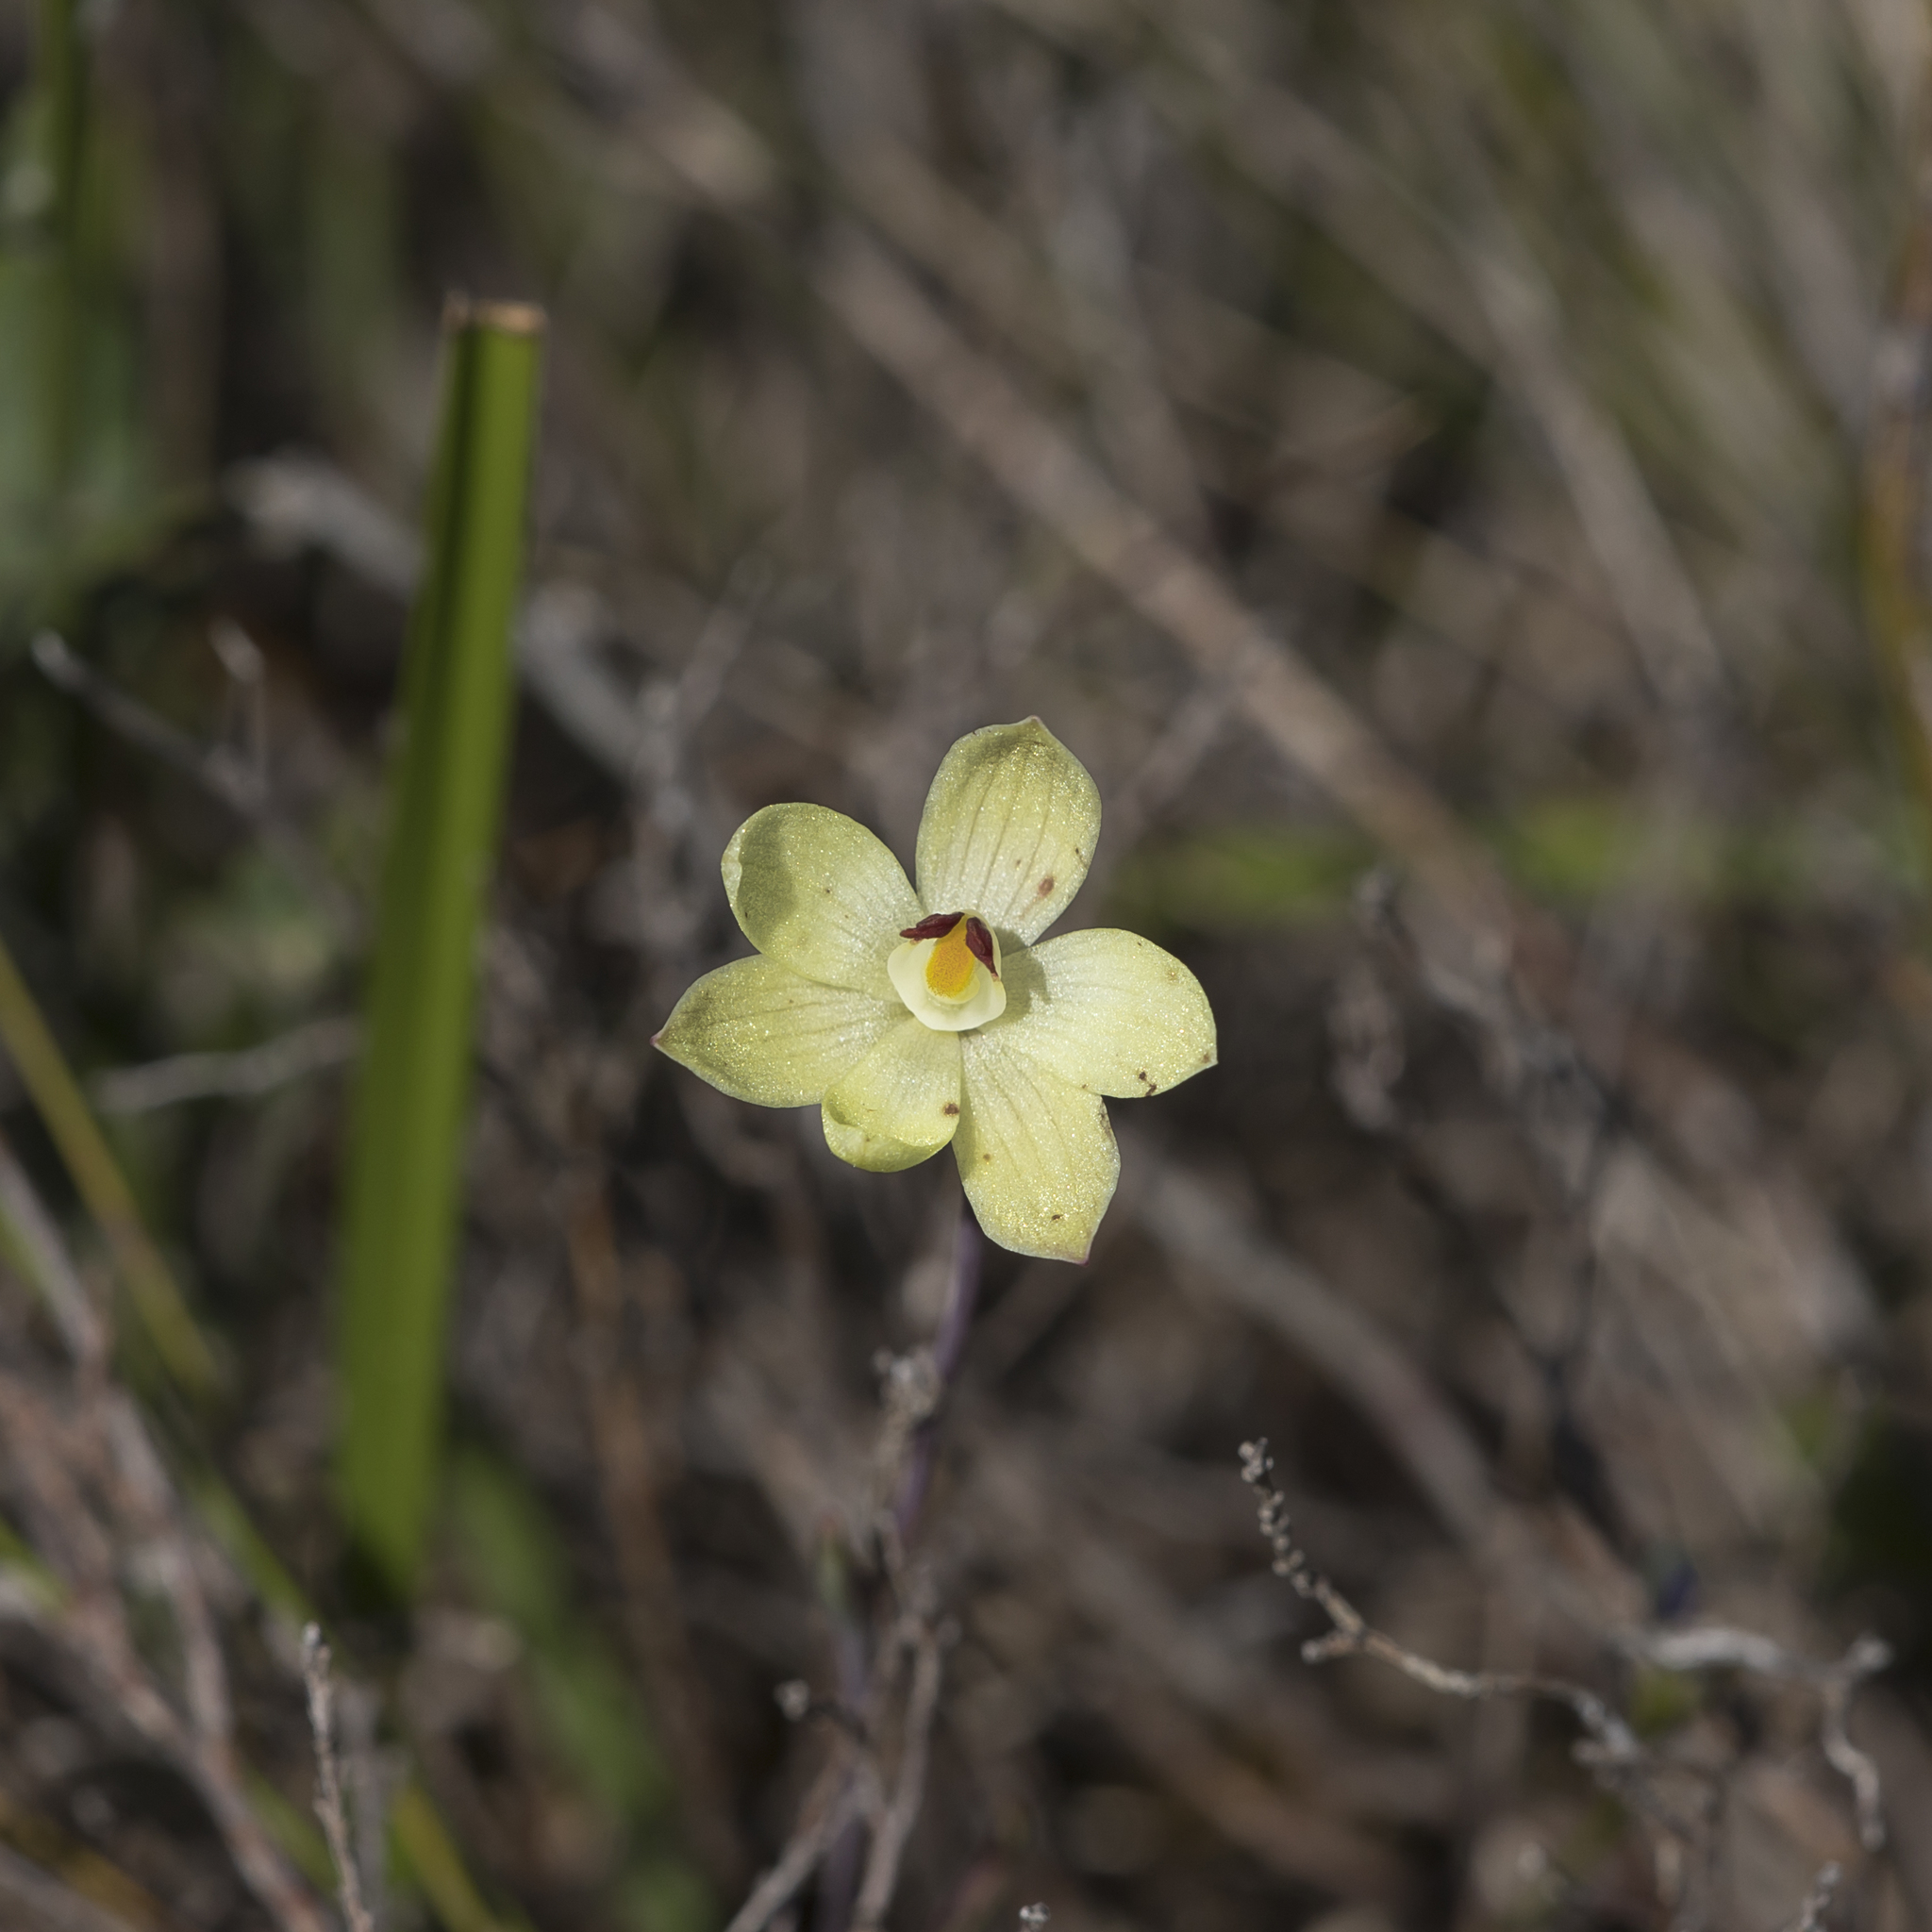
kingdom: Plantae
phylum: Tracheophyta
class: Liliopsida
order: Asparagales
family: Orchidaceae
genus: Thelymitra
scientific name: Thelymitra antennifera
